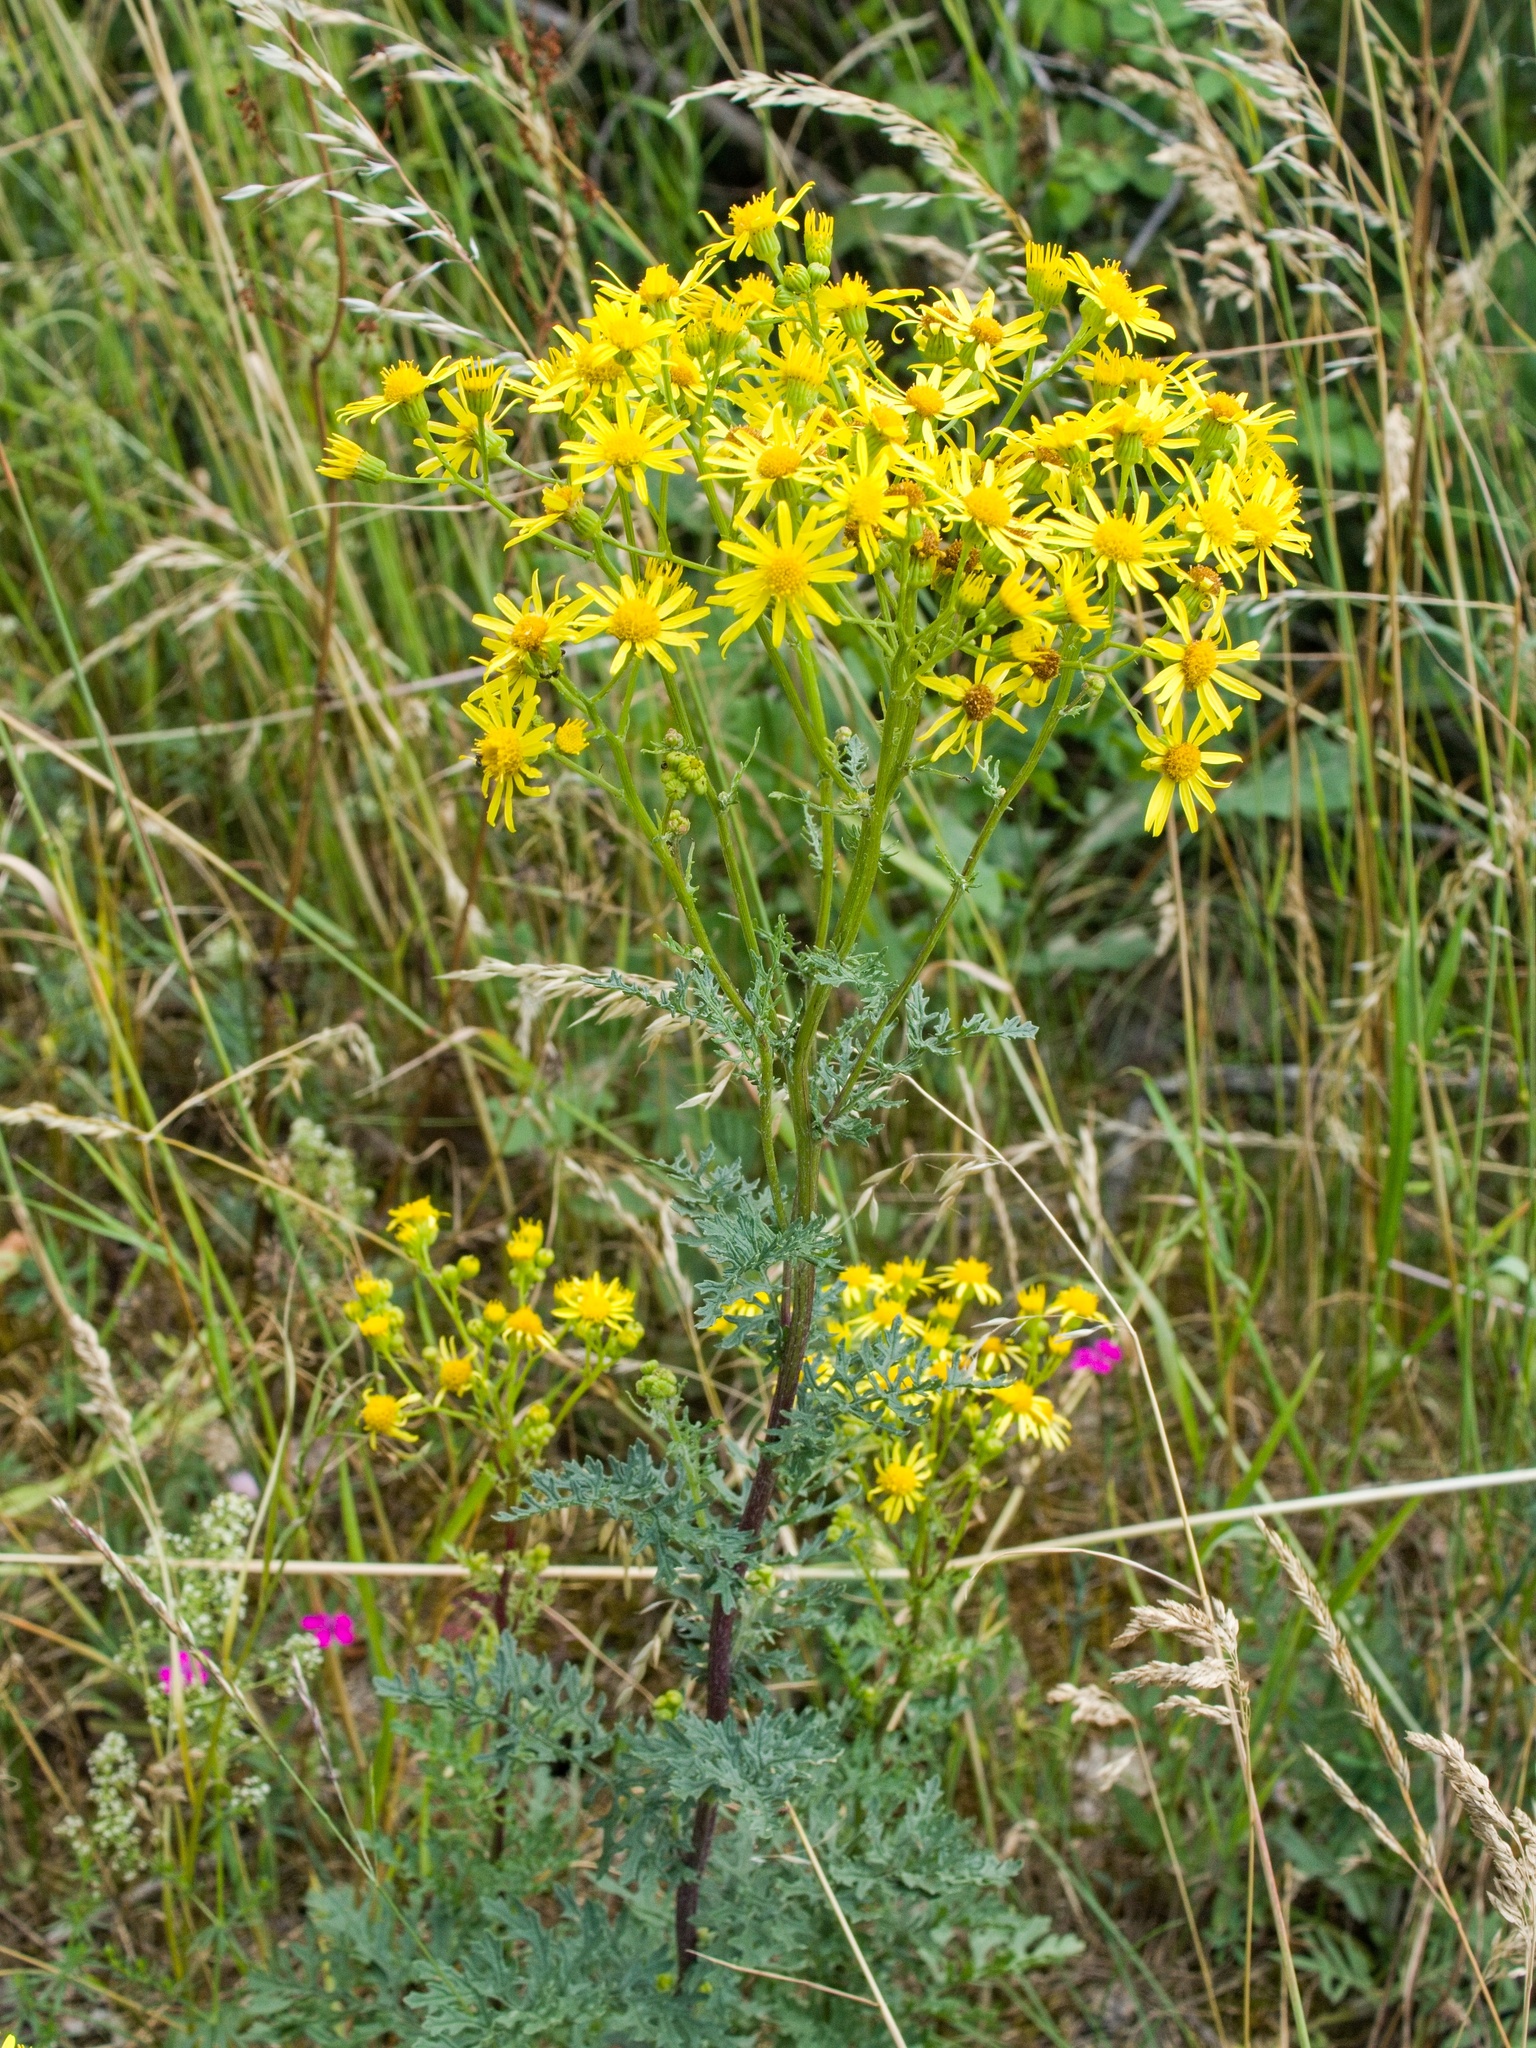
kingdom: Plantae
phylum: Tracheophyta
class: Magnoliopsida
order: Asterales
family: Asteraceae
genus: Jacobaea
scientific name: Jacobaea vulgaris
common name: Stinking willie
